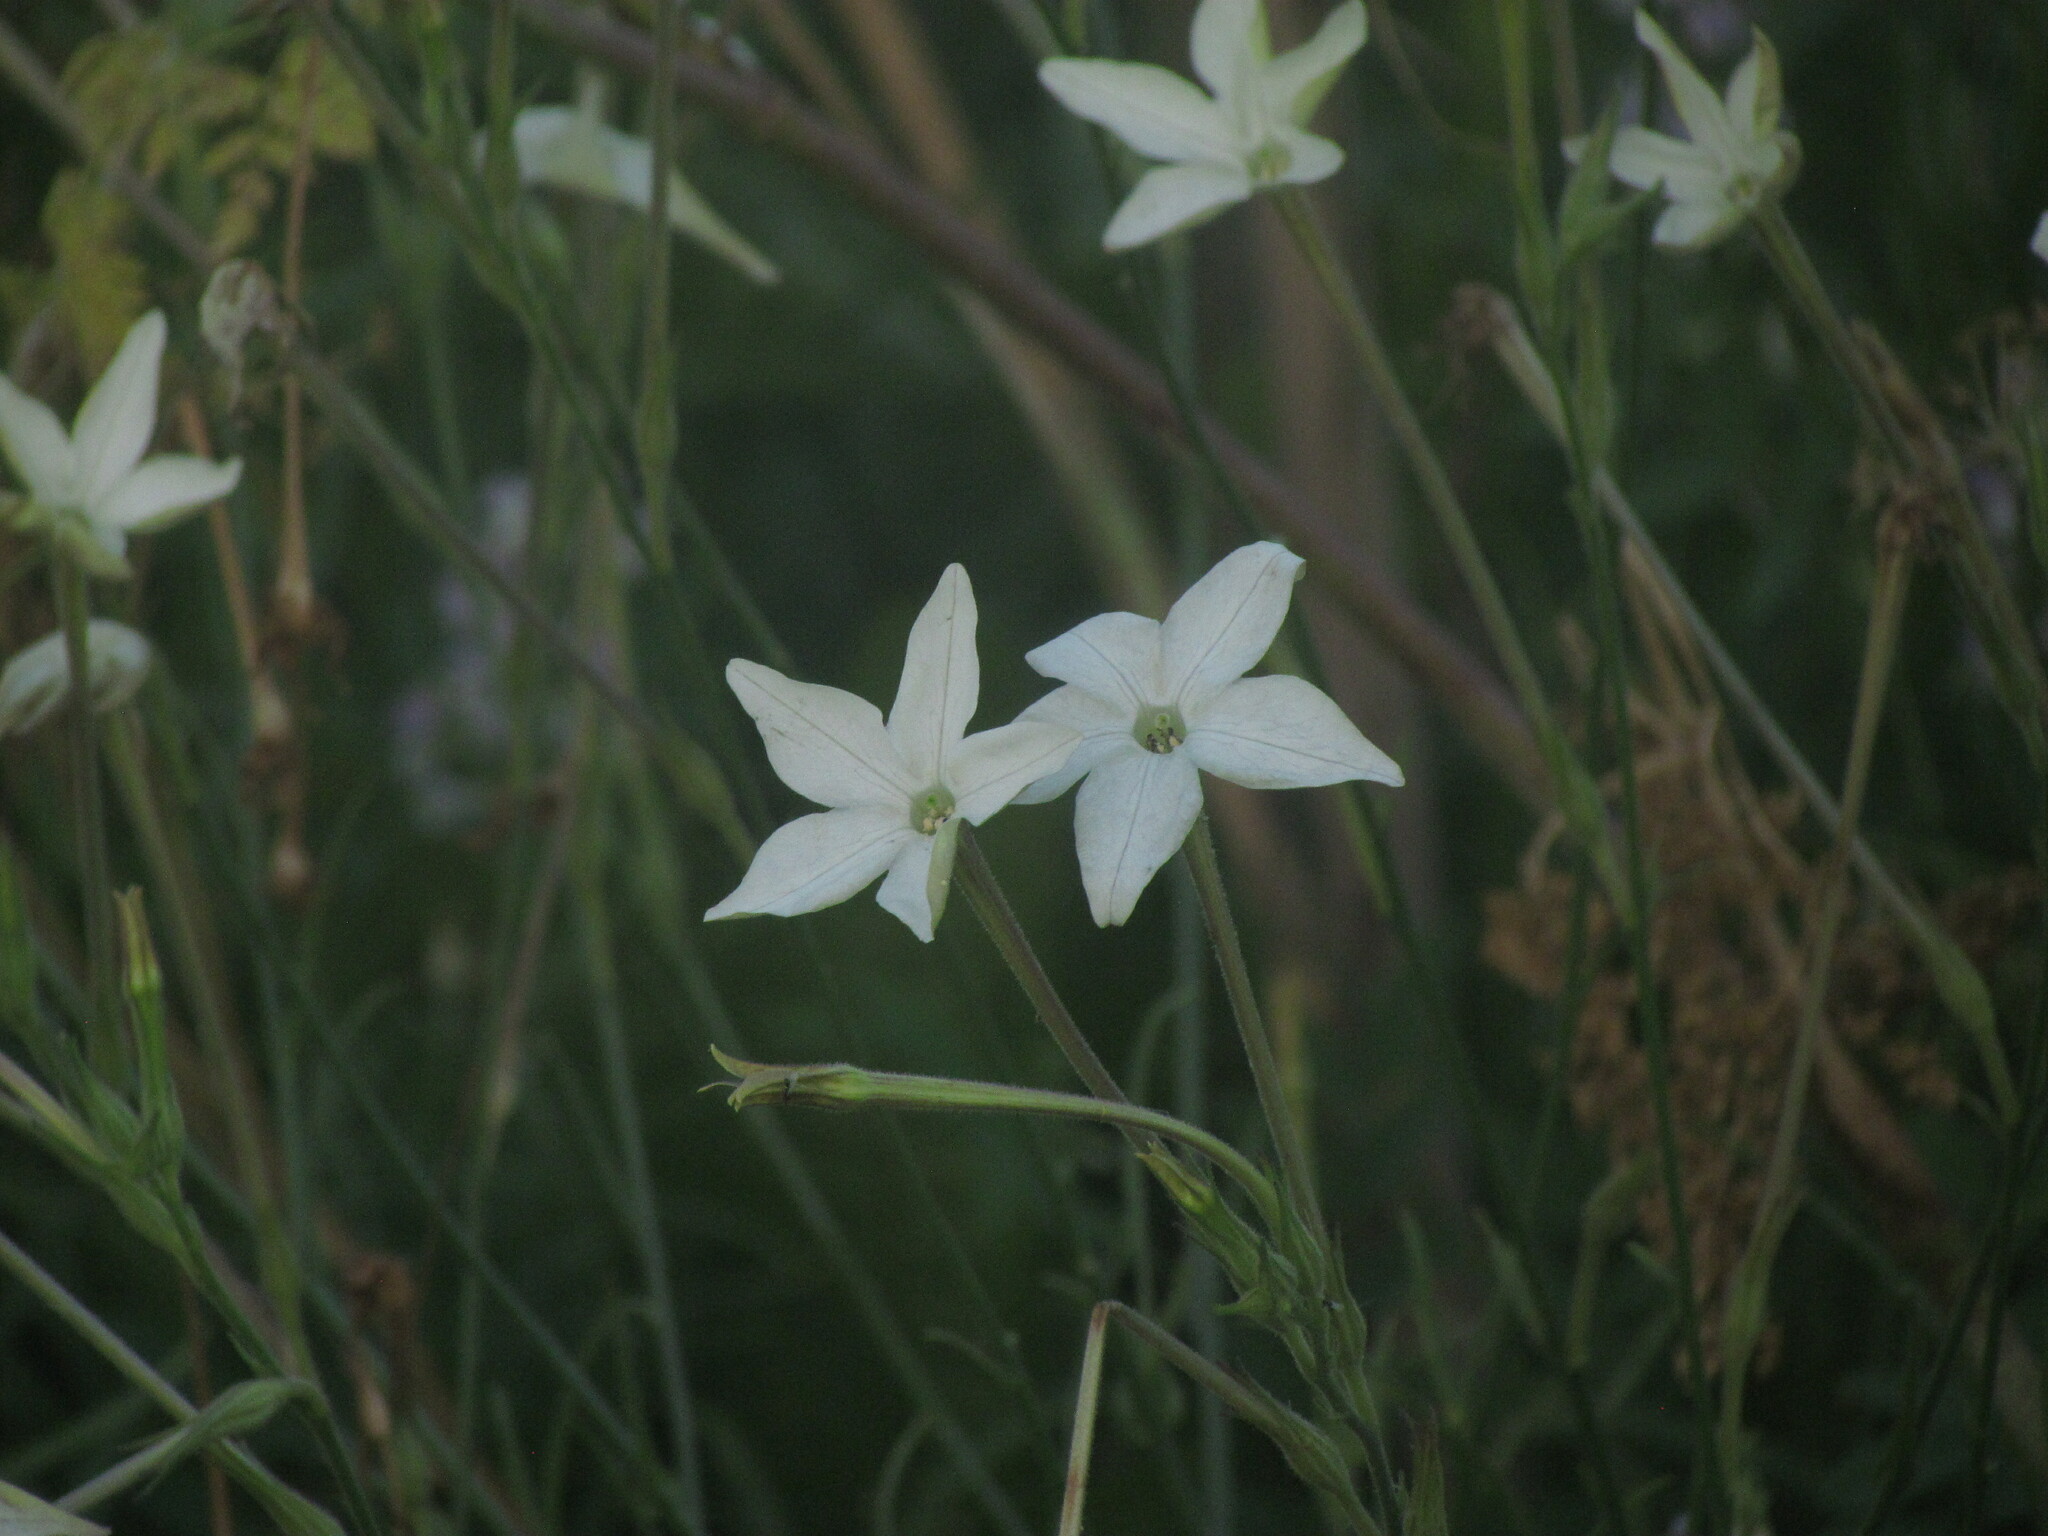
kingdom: Plantae
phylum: Tracheophyta
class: Magnoliopsida
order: Solanales
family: Solanaceae
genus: Nicotiana
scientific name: Nicotiana longiflora
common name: Long-flowered tobacco
